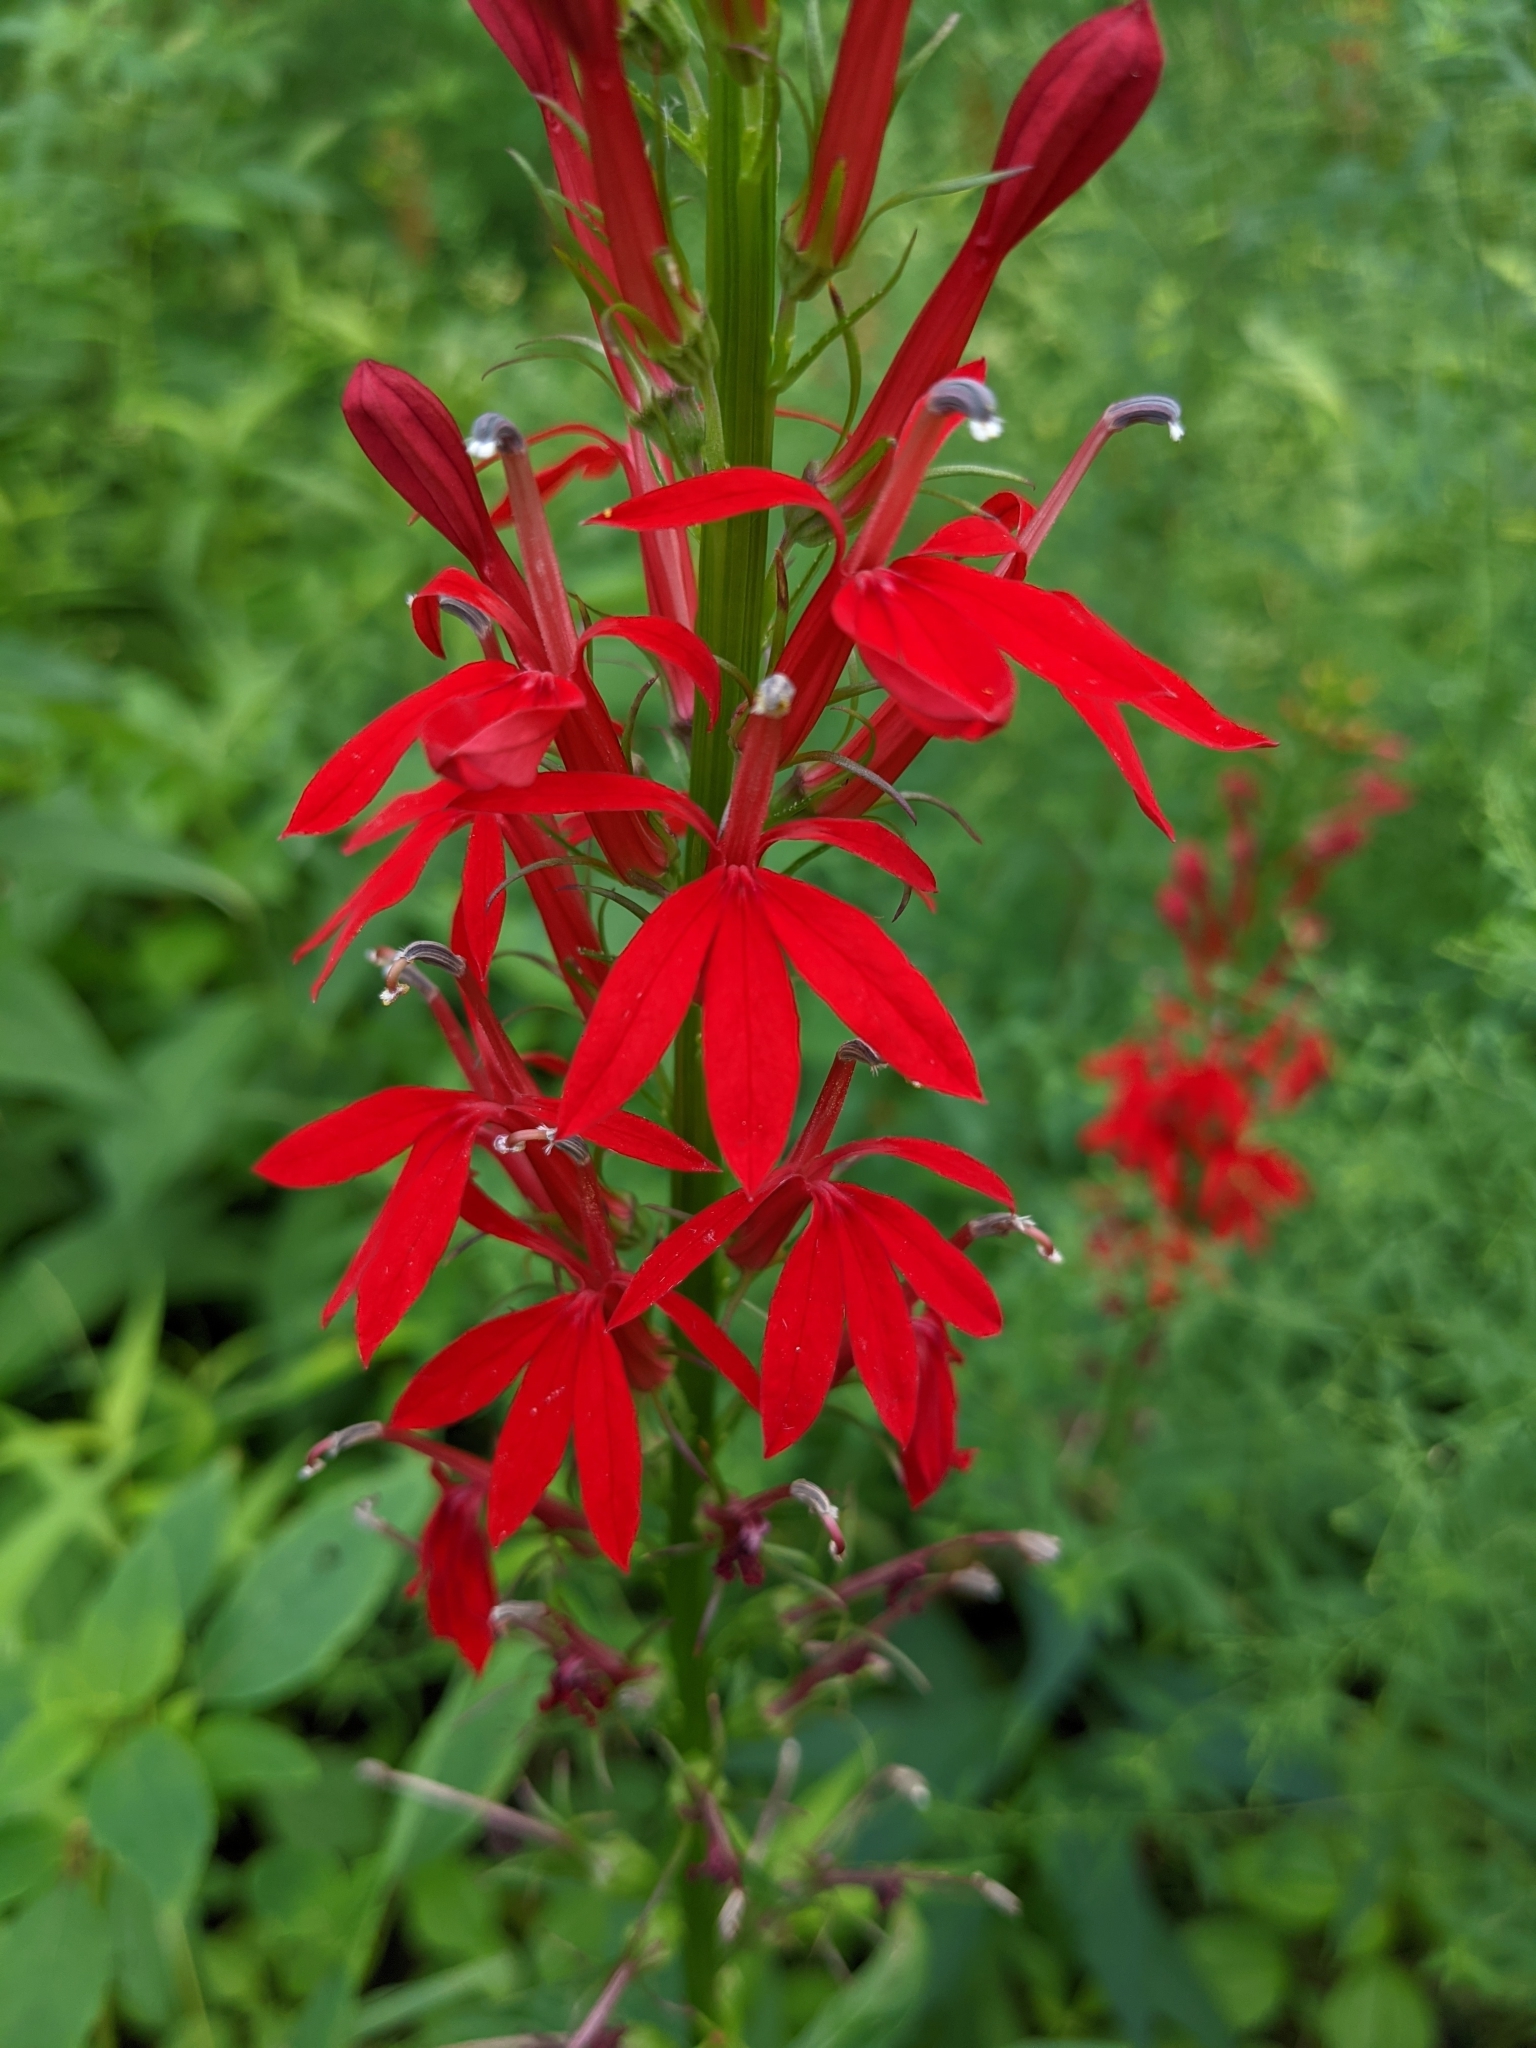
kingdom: Plantae
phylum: Tracheophyta
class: Magnoliopsida
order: Asterales
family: Campanulaceae
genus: Lobelia
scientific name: Lobelia cardinalis
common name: Cardinal flower
